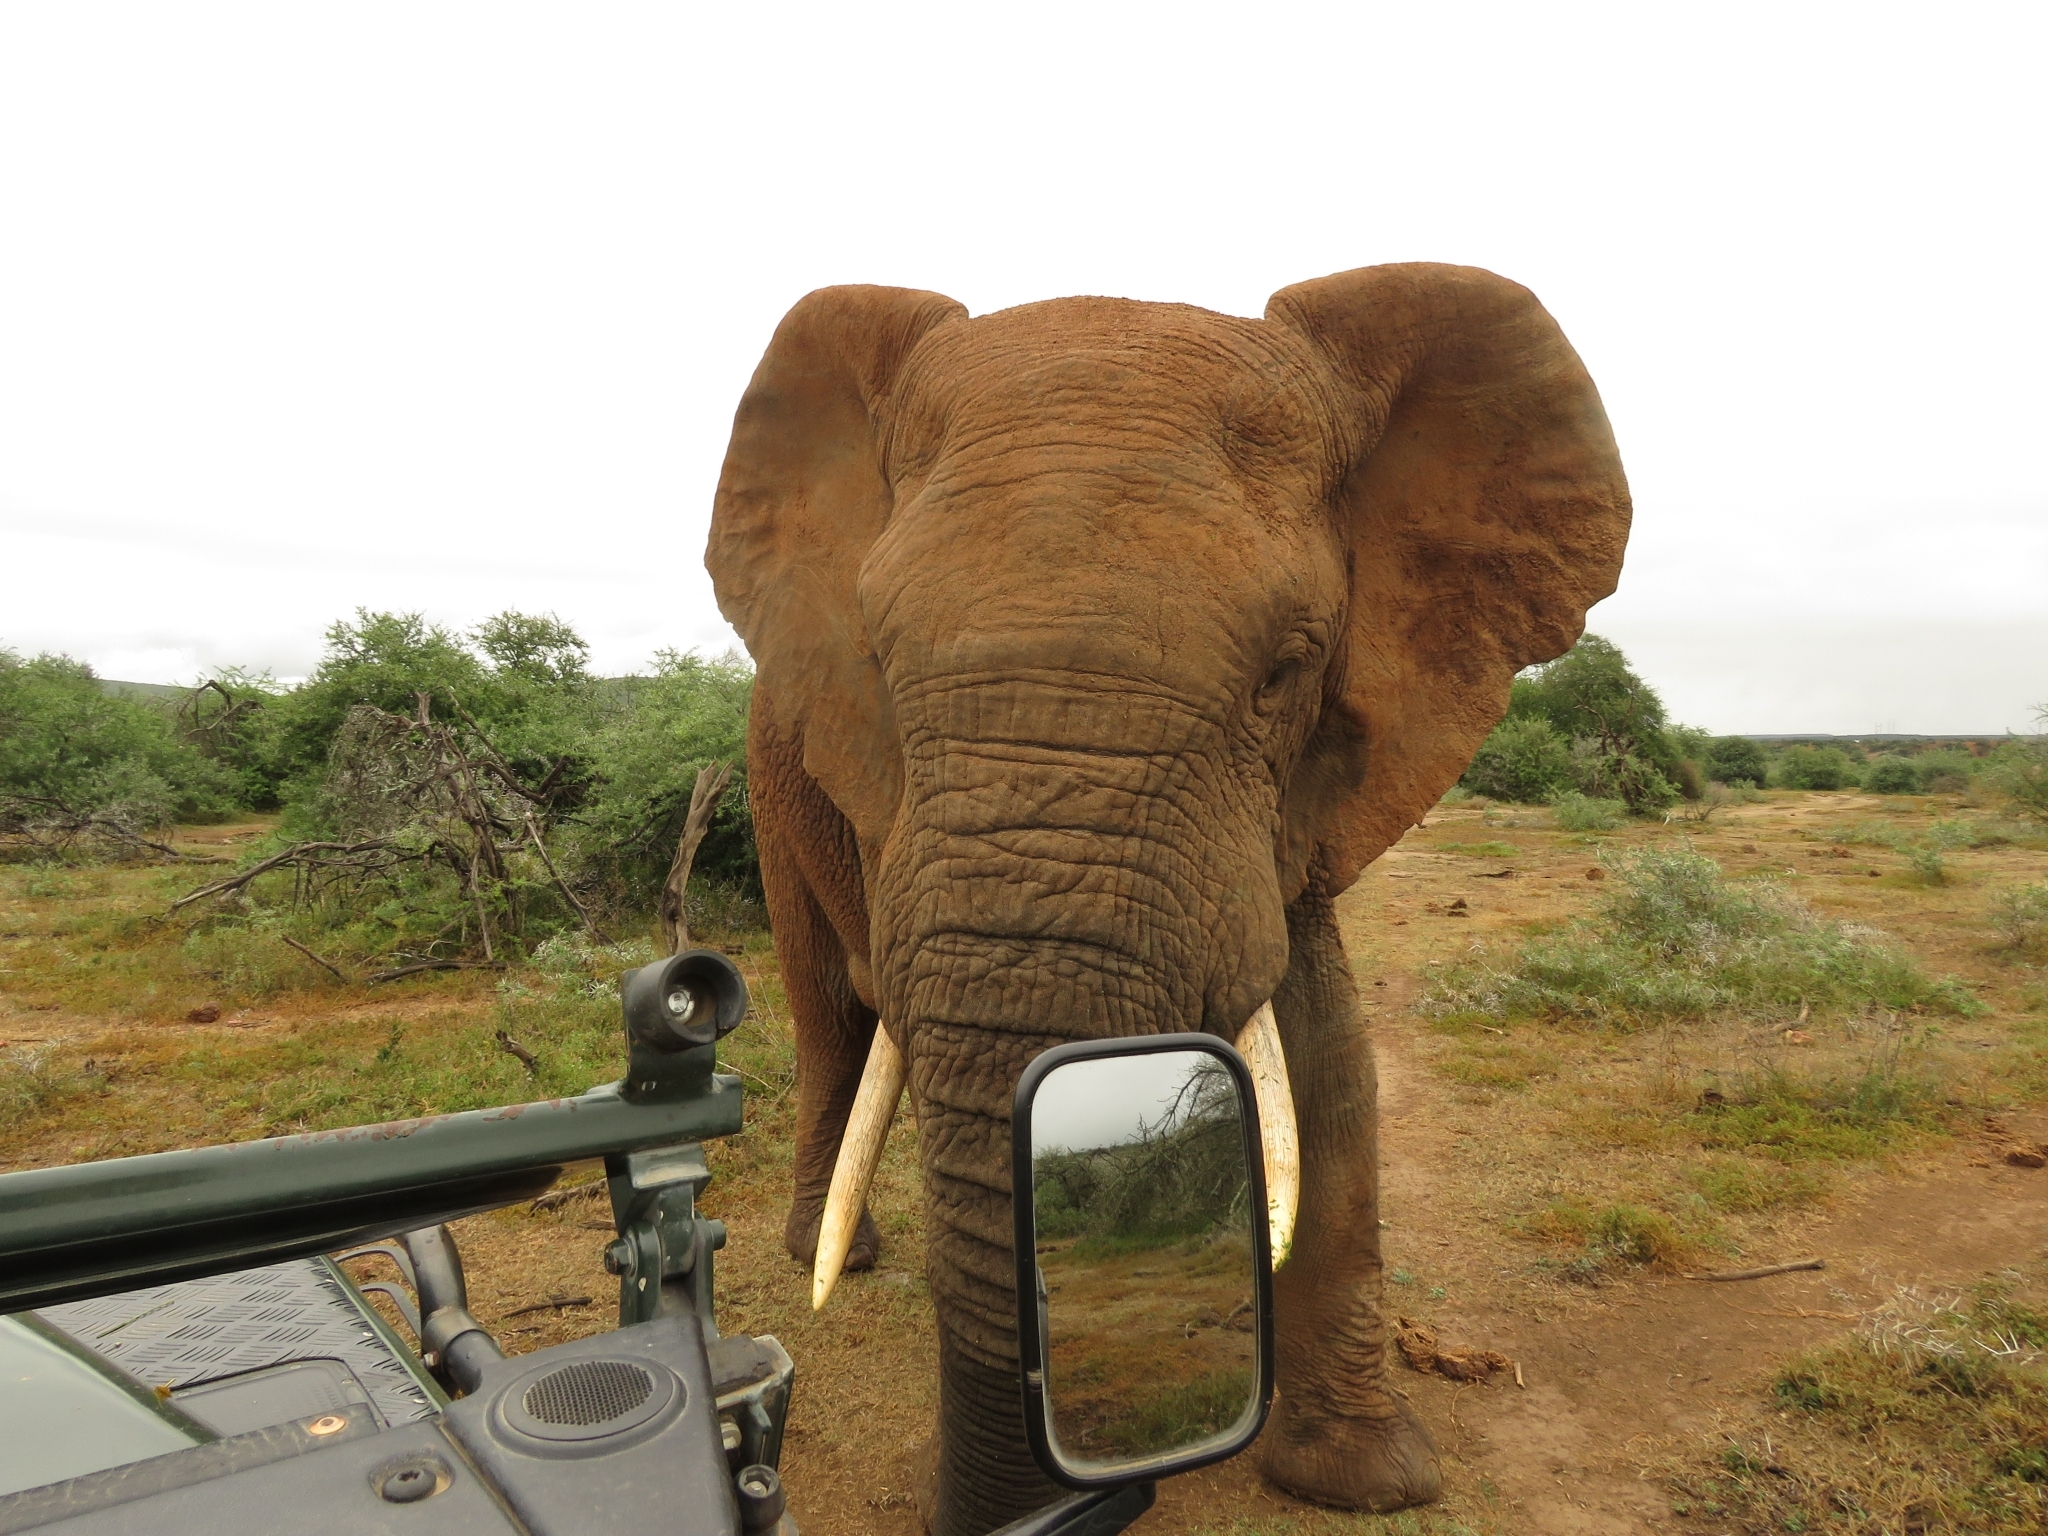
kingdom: Animalia
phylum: Chordata
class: Mammalia
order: Proboscidea
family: Elephantidae
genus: Loxodonta
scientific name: Loxodonta africana
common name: African elephant
